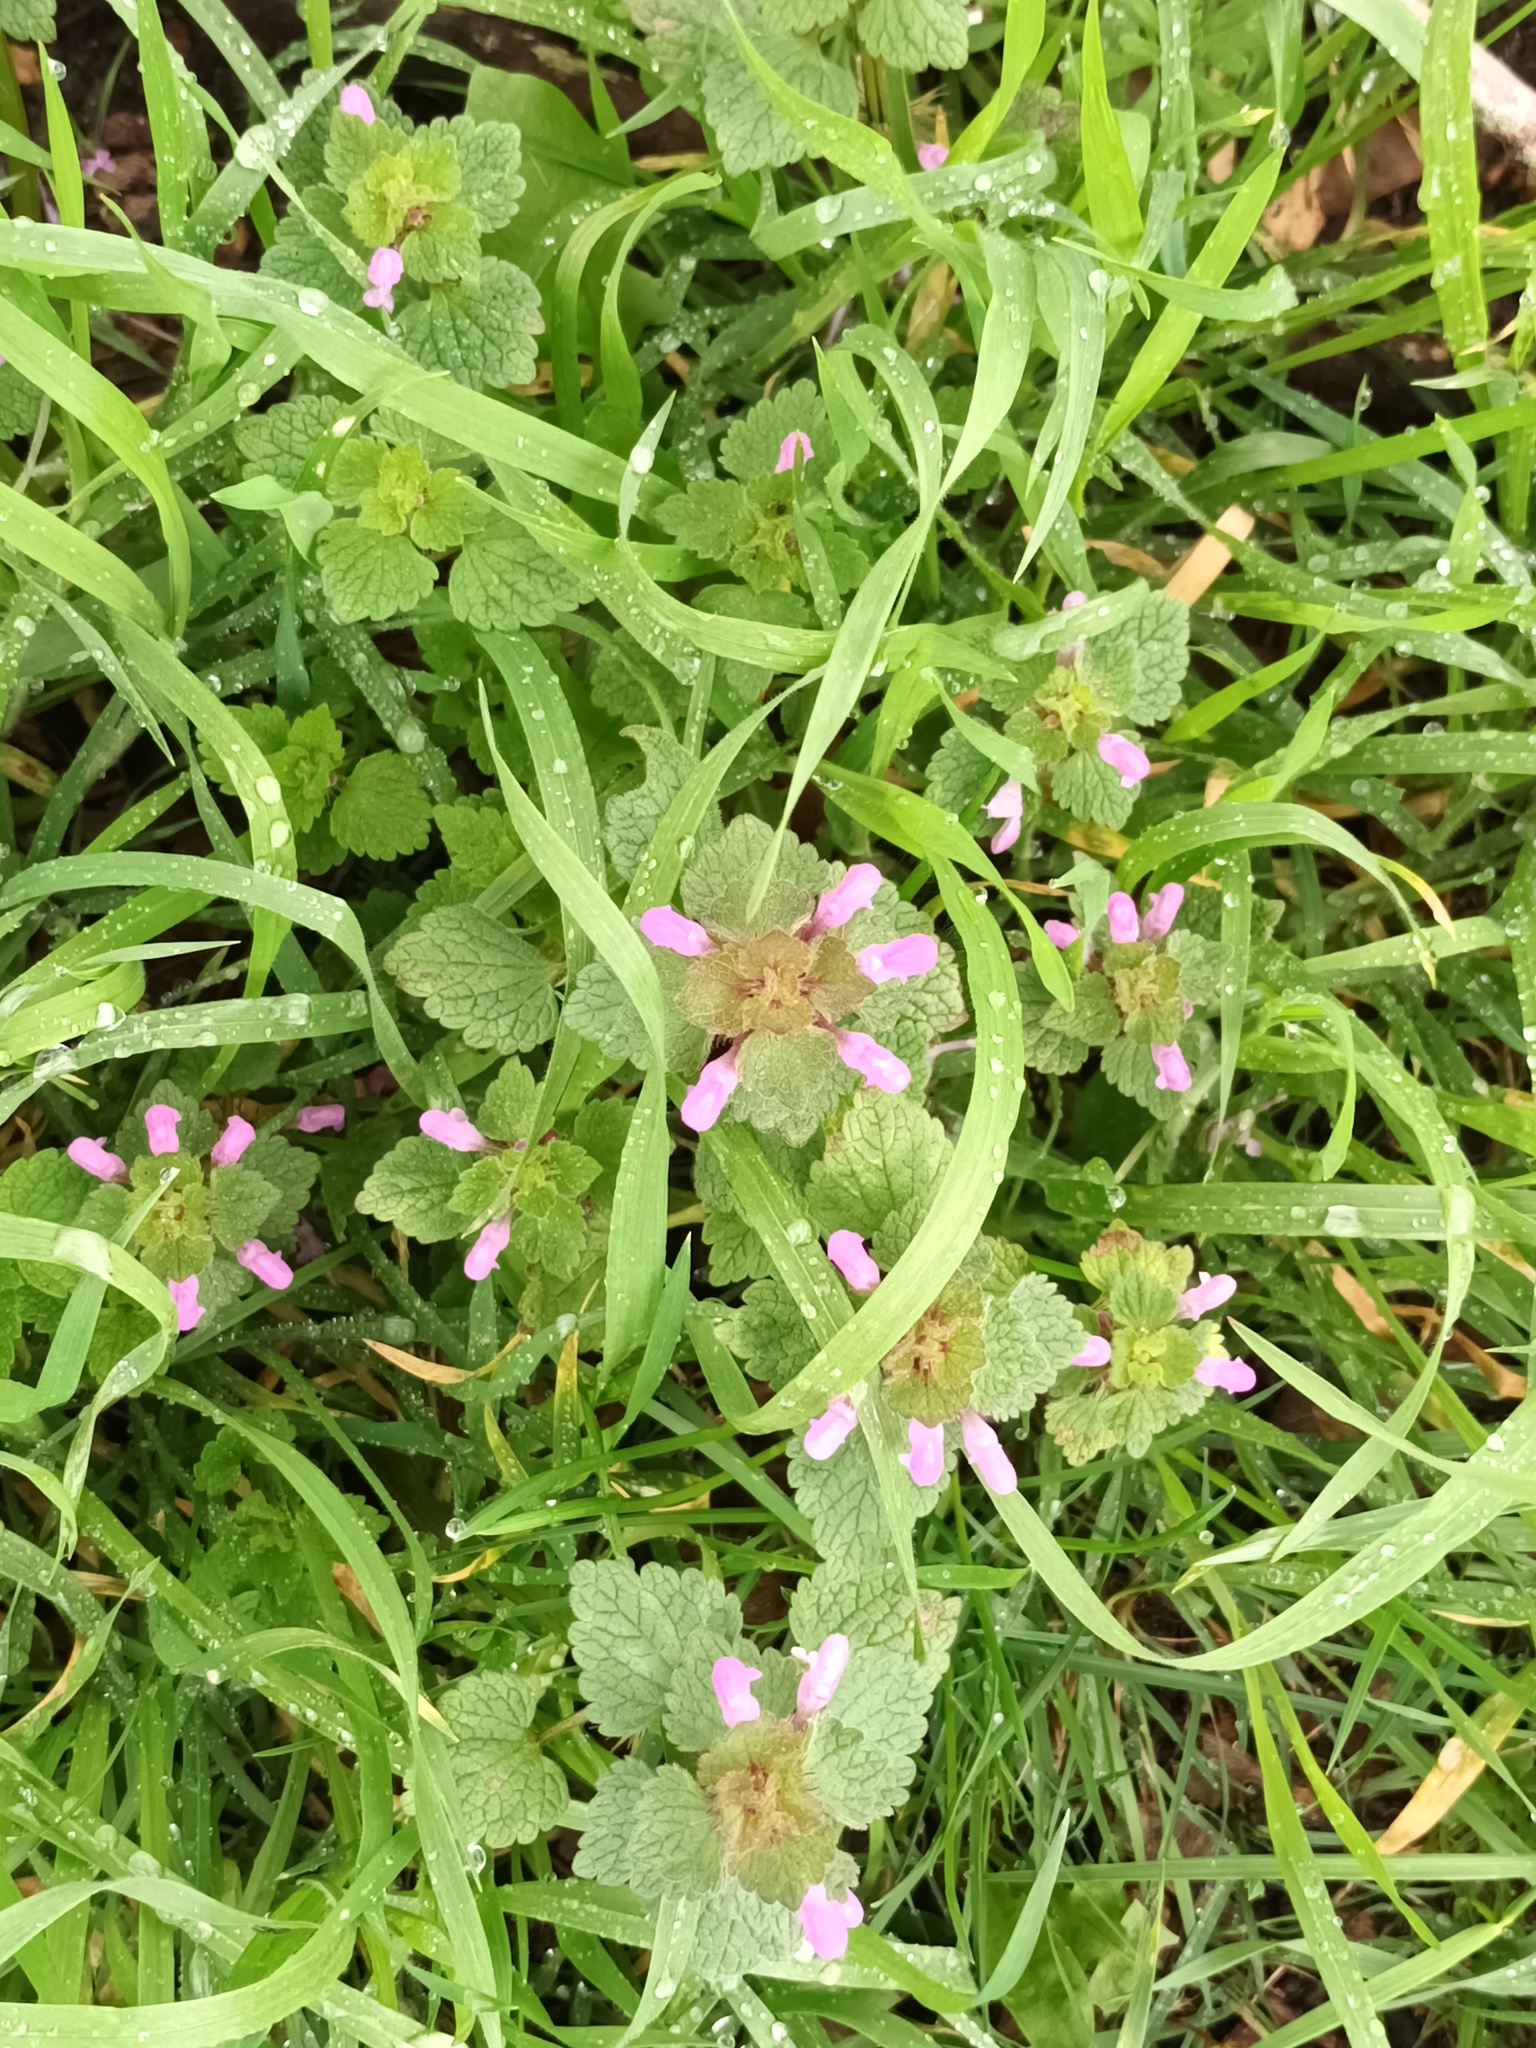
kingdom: Plantae
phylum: Tracheophyta
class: Magnoliopsida
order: Lamiales
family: Lamiaceae
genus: Lamium
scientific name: Lamium purpureum
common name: Red dead-nettle
